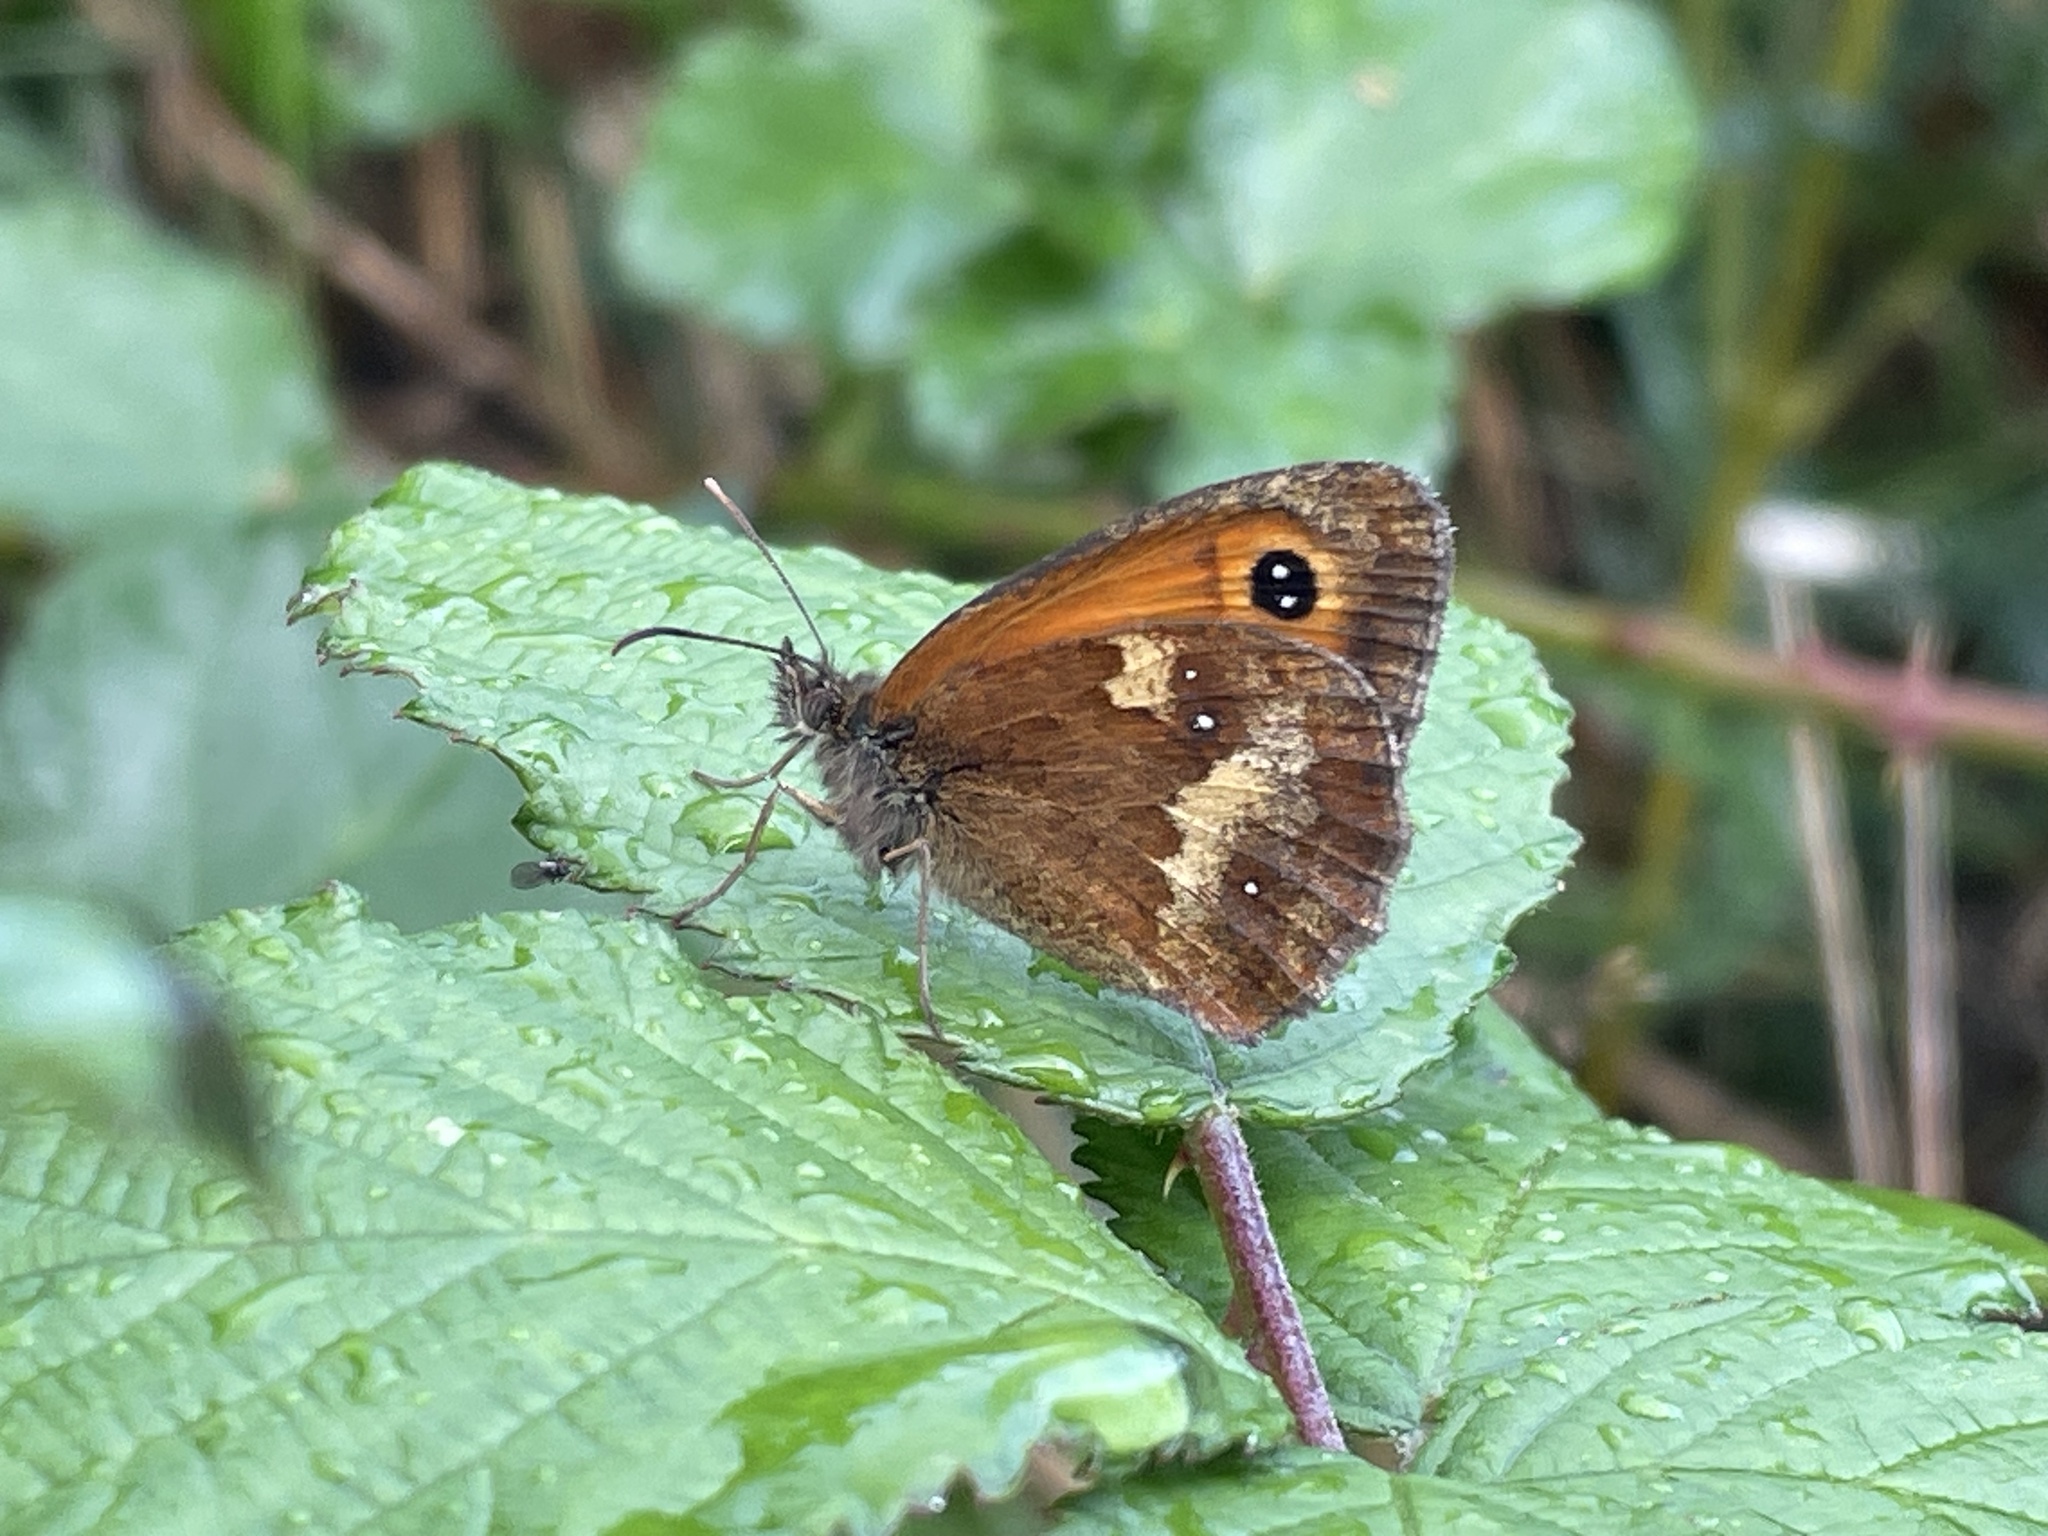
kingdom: Animalia
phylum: Arthropoda
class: Insecta
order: Lepidoptera
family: Nymphalidae
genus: Pyronia
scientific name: Pyronia tithonus
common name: Gatekeeper
